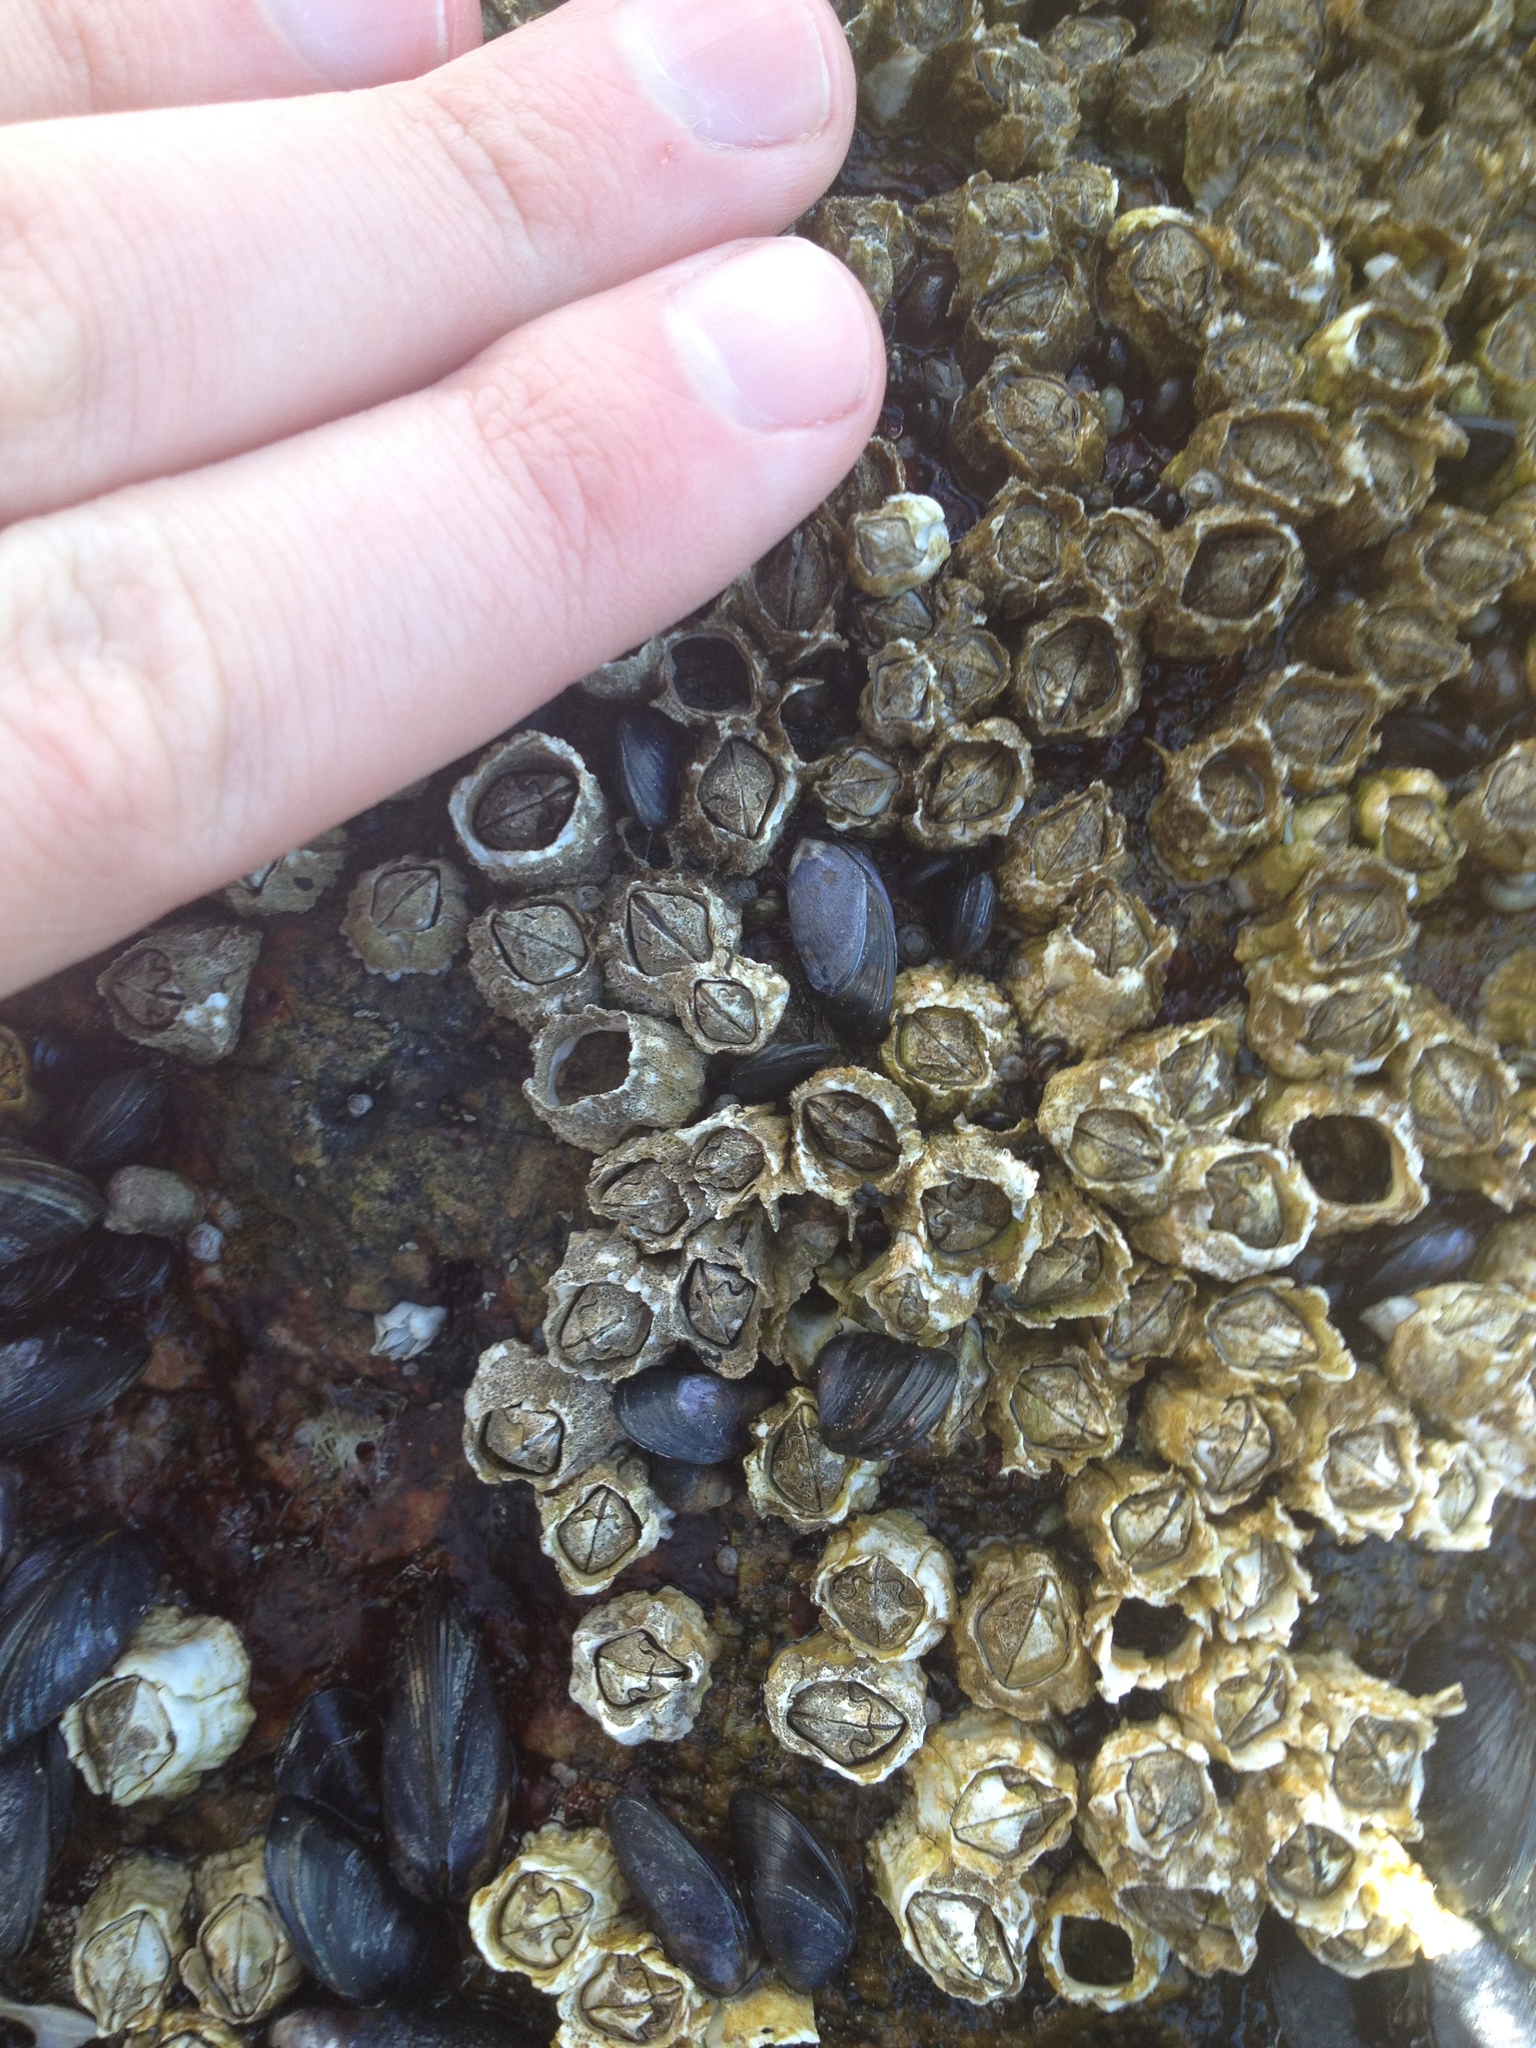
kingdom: Animalia
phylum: Arthropoda
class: Maxillopoda
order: Sessilia
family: Archaeobalanidae
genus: Semibalanus
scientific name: Semibalanus balanoides
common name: Acorn barnacle
